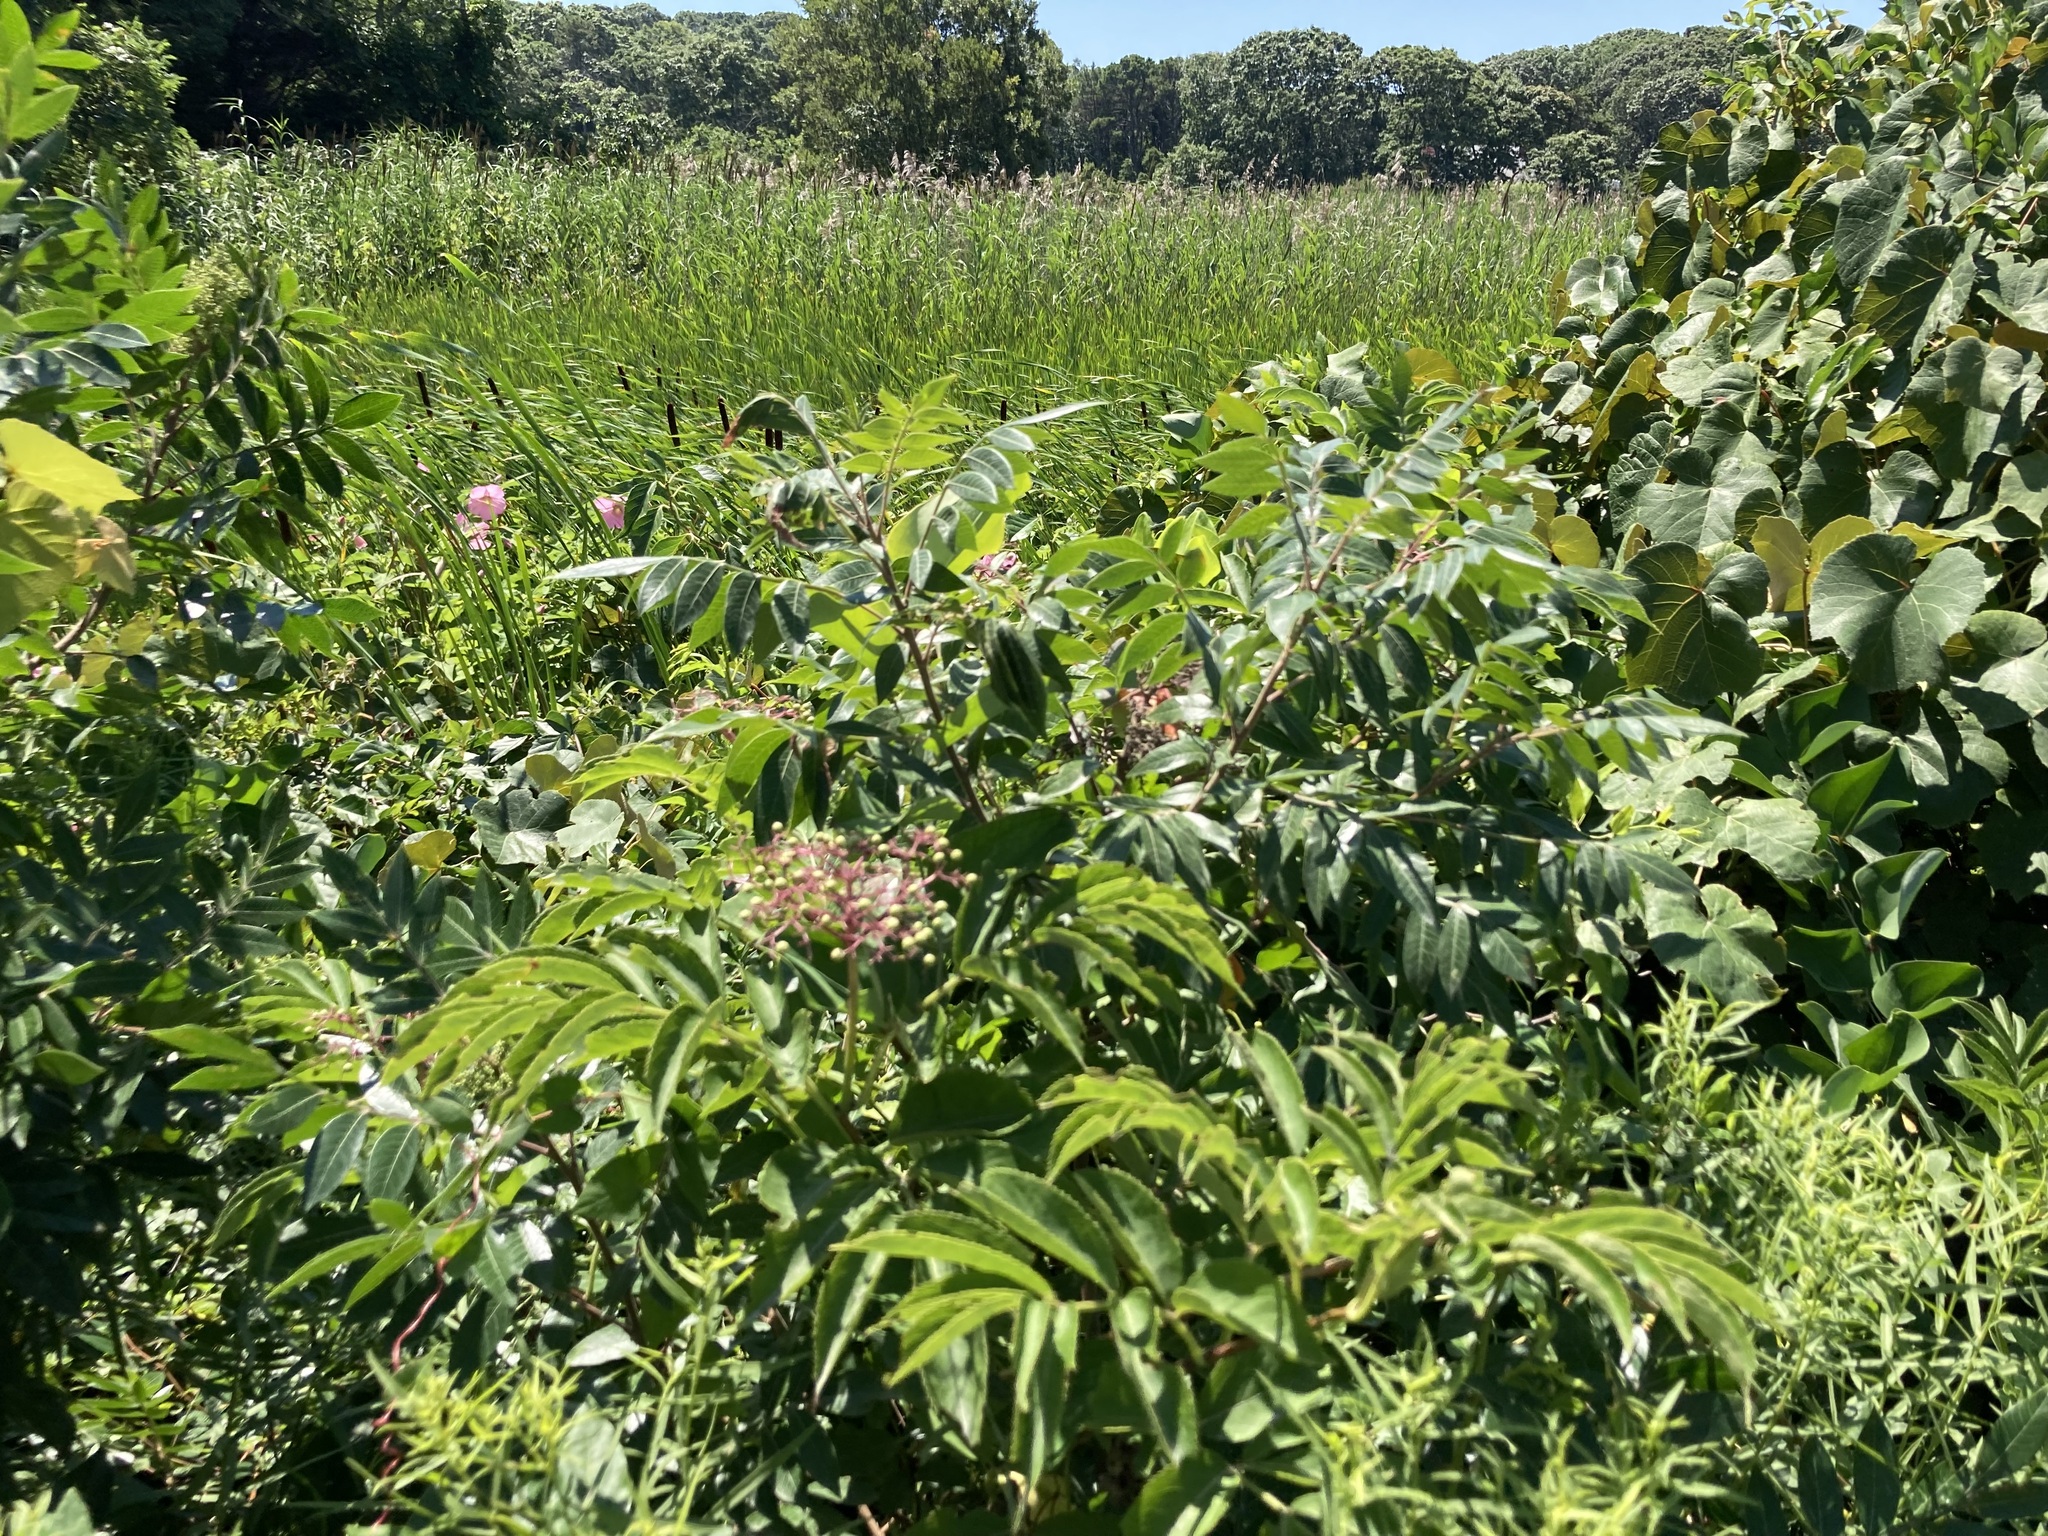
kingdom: Plantae
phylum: Tracheophyta
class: Magnoliopsida
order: Dipsacales
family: Viburnaceae
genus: Sambucus
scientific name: Sambucus canadensis
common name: American elder
